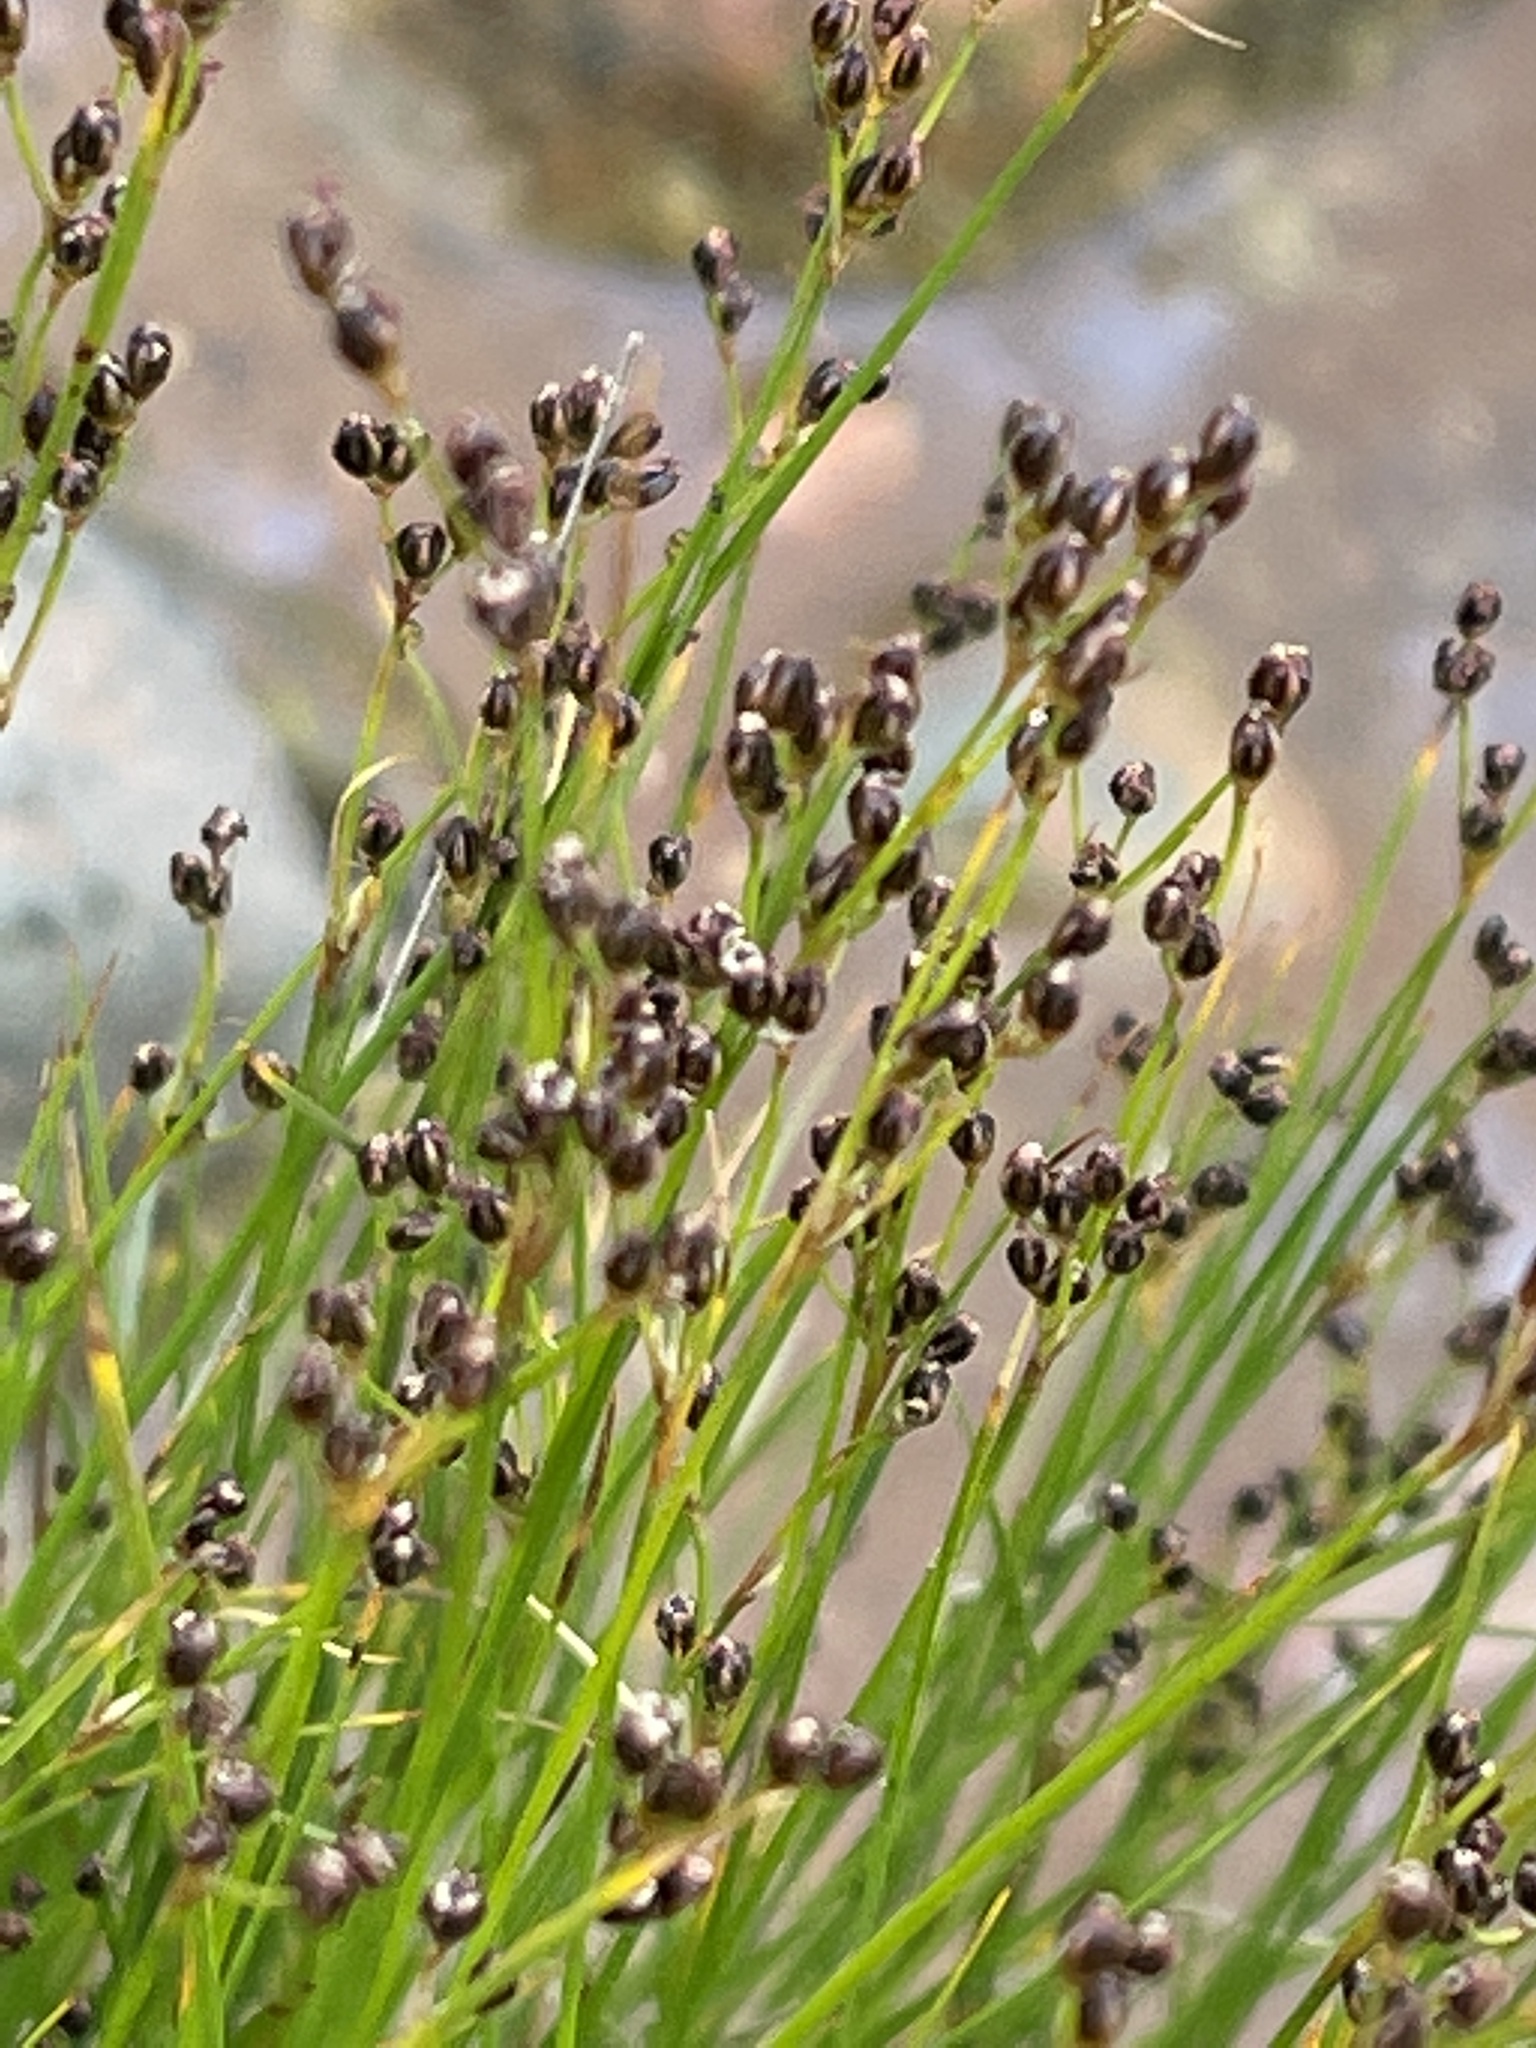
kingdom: Plantae
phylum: Tracheophyta
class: Liliopsida
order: Poales
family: Juncaceae
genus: Juncus
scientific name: Juncus gerardi
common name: Saltmarsh rush
